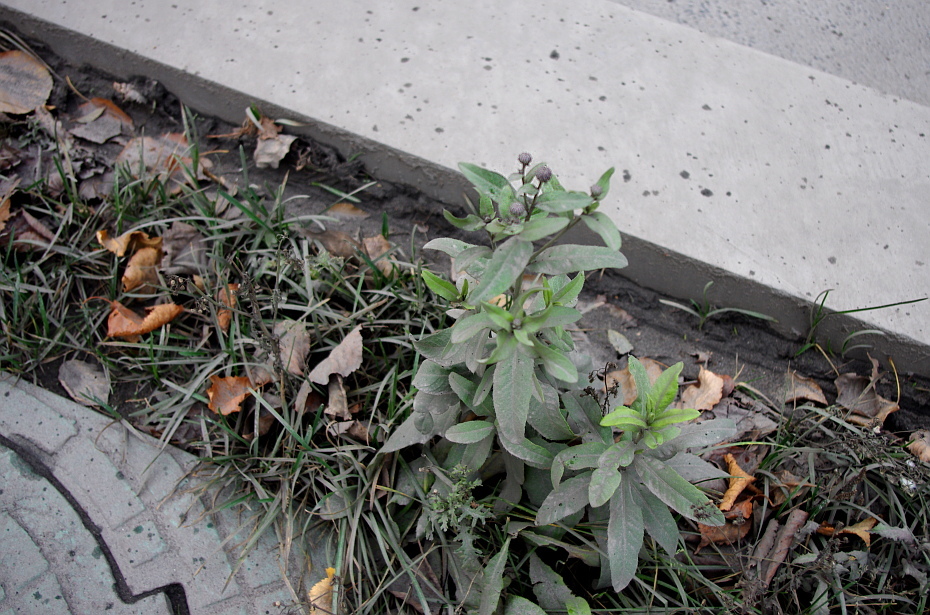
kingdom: Plantae
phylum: Tracheophyta
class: Magnoliopsida
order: Asterales
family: Asteraceae
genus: Cirsium
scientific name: Cirsium arvense
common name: Creeping thistle
